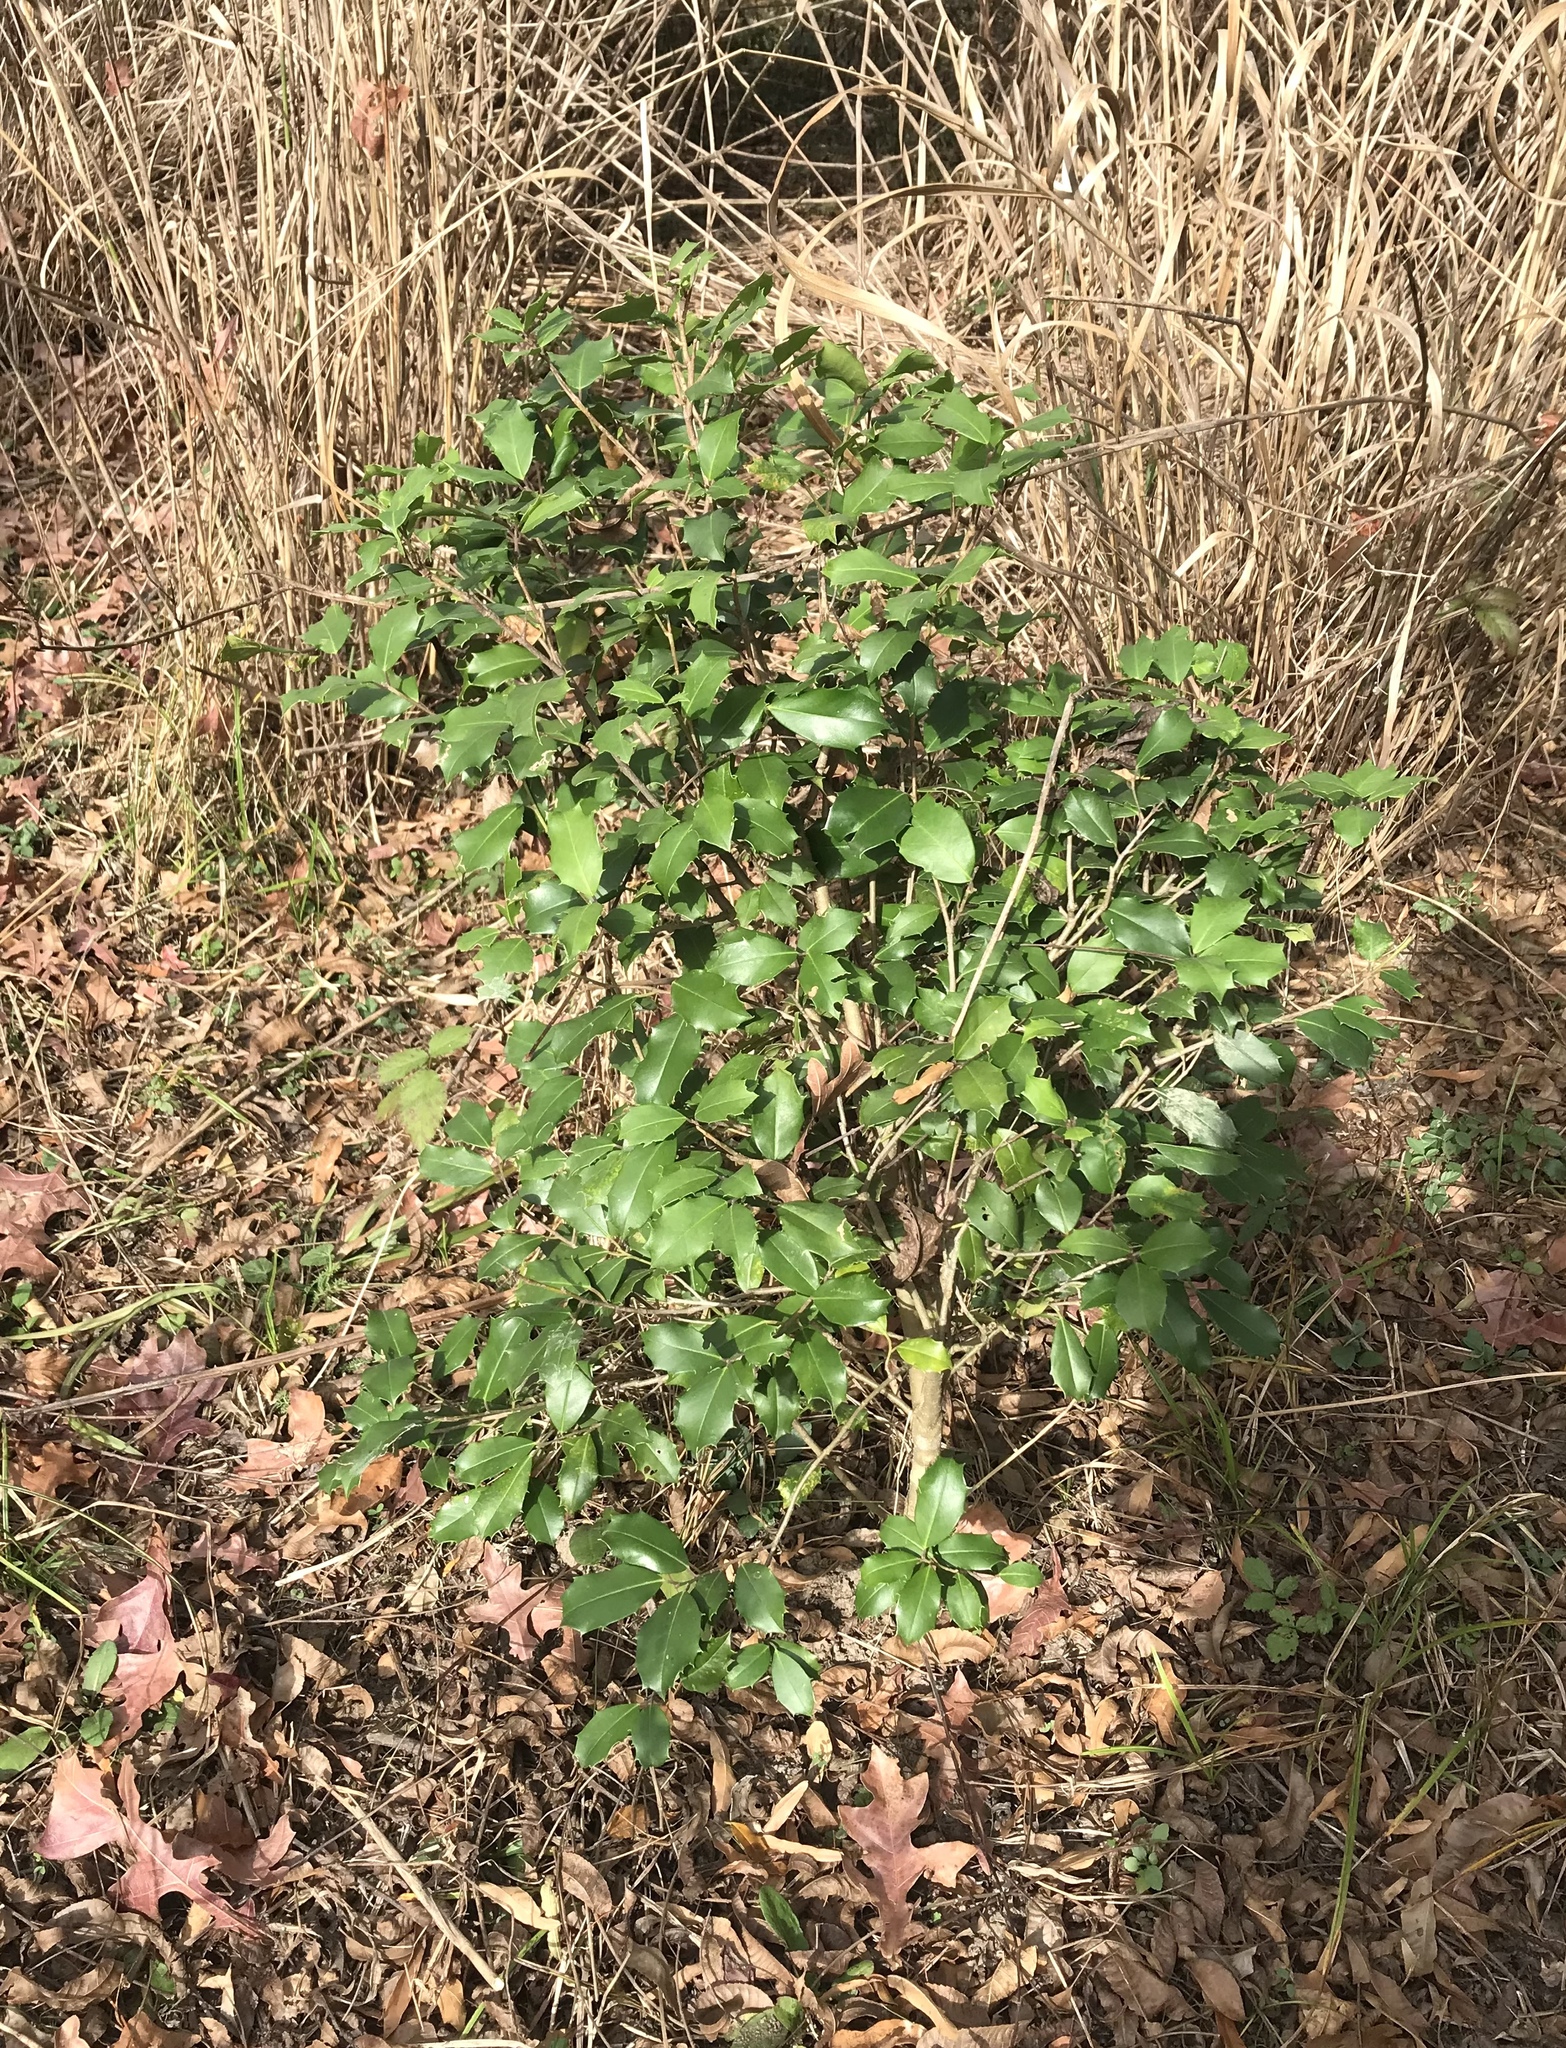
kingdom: Plantae
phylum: Tracheophyta
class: Magnoliopsida
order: Aquifoliales
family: Aquifoliaceae
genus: Ilex
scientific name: Ilex opaca
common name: American holly
